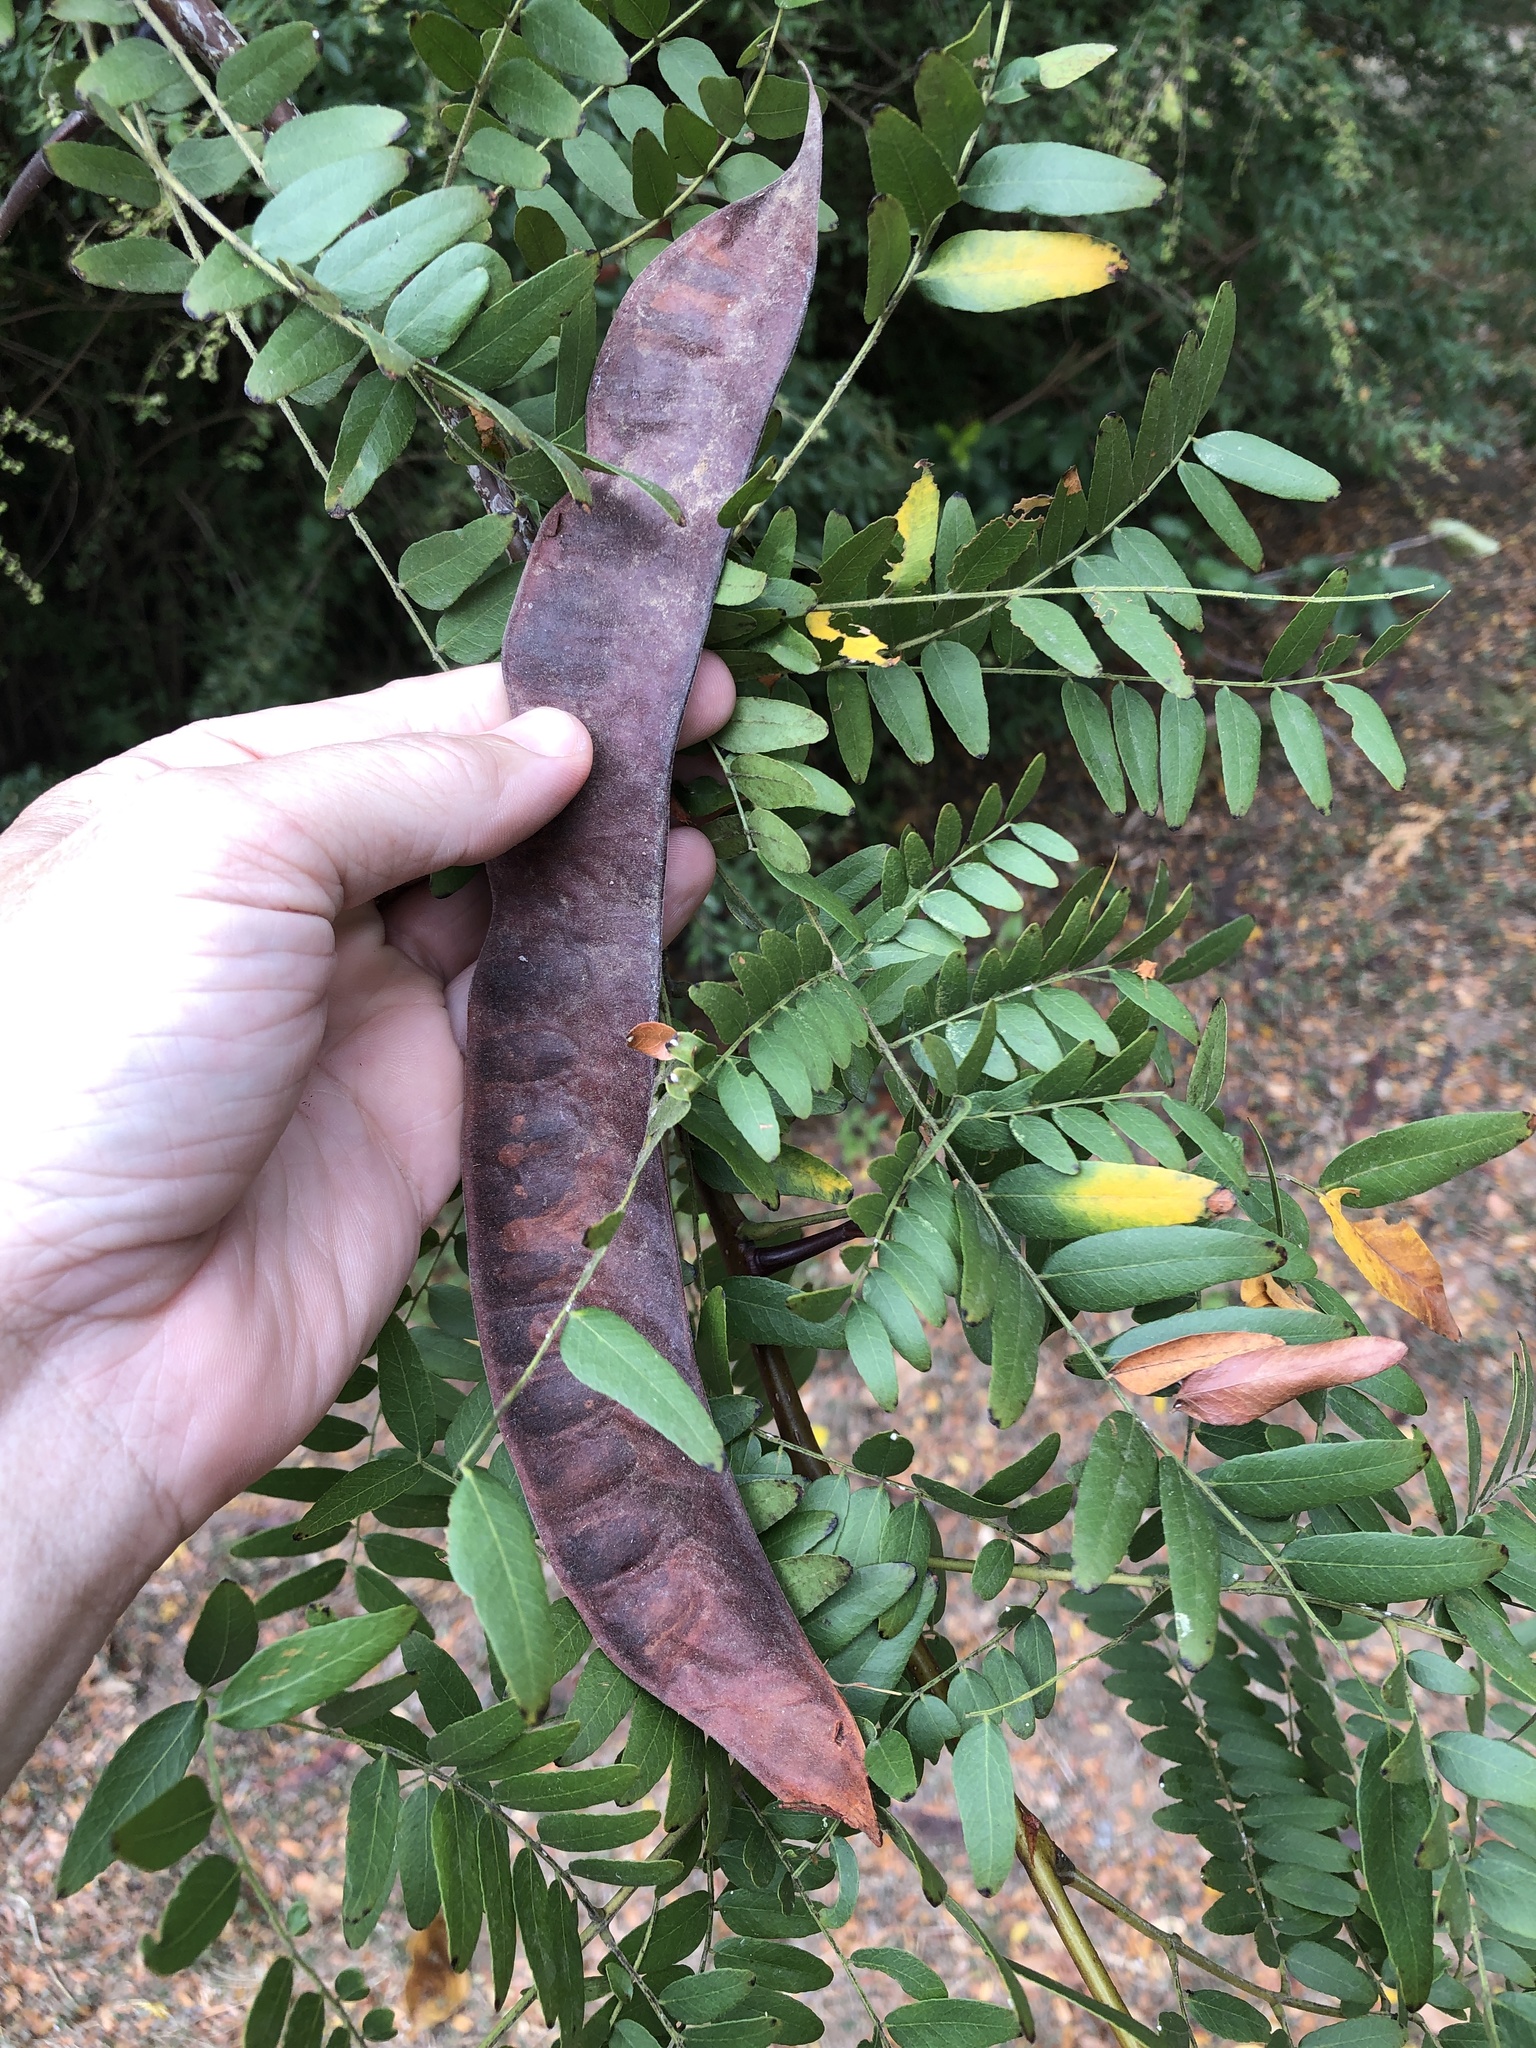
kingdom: Plantae
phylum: Tracheophyta
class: Magnoliopsida
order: Fabales
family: Fabaceae
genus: Gleditsia
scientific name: Gleditsia triacanthos
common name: Common honeylocust
